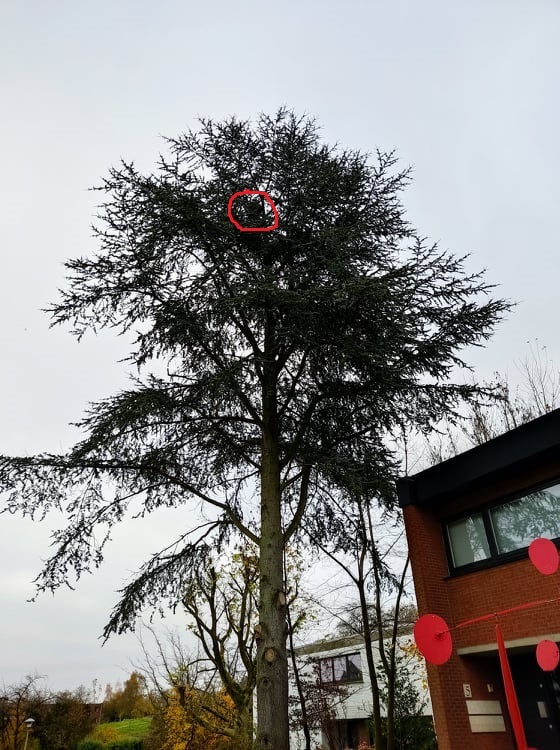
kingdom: Animalia
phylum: Arthropoda
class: Insecta
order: Hymenoptera
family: Vespidae
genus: Vespa
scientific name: Vespa velutina
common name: Asian hornet
